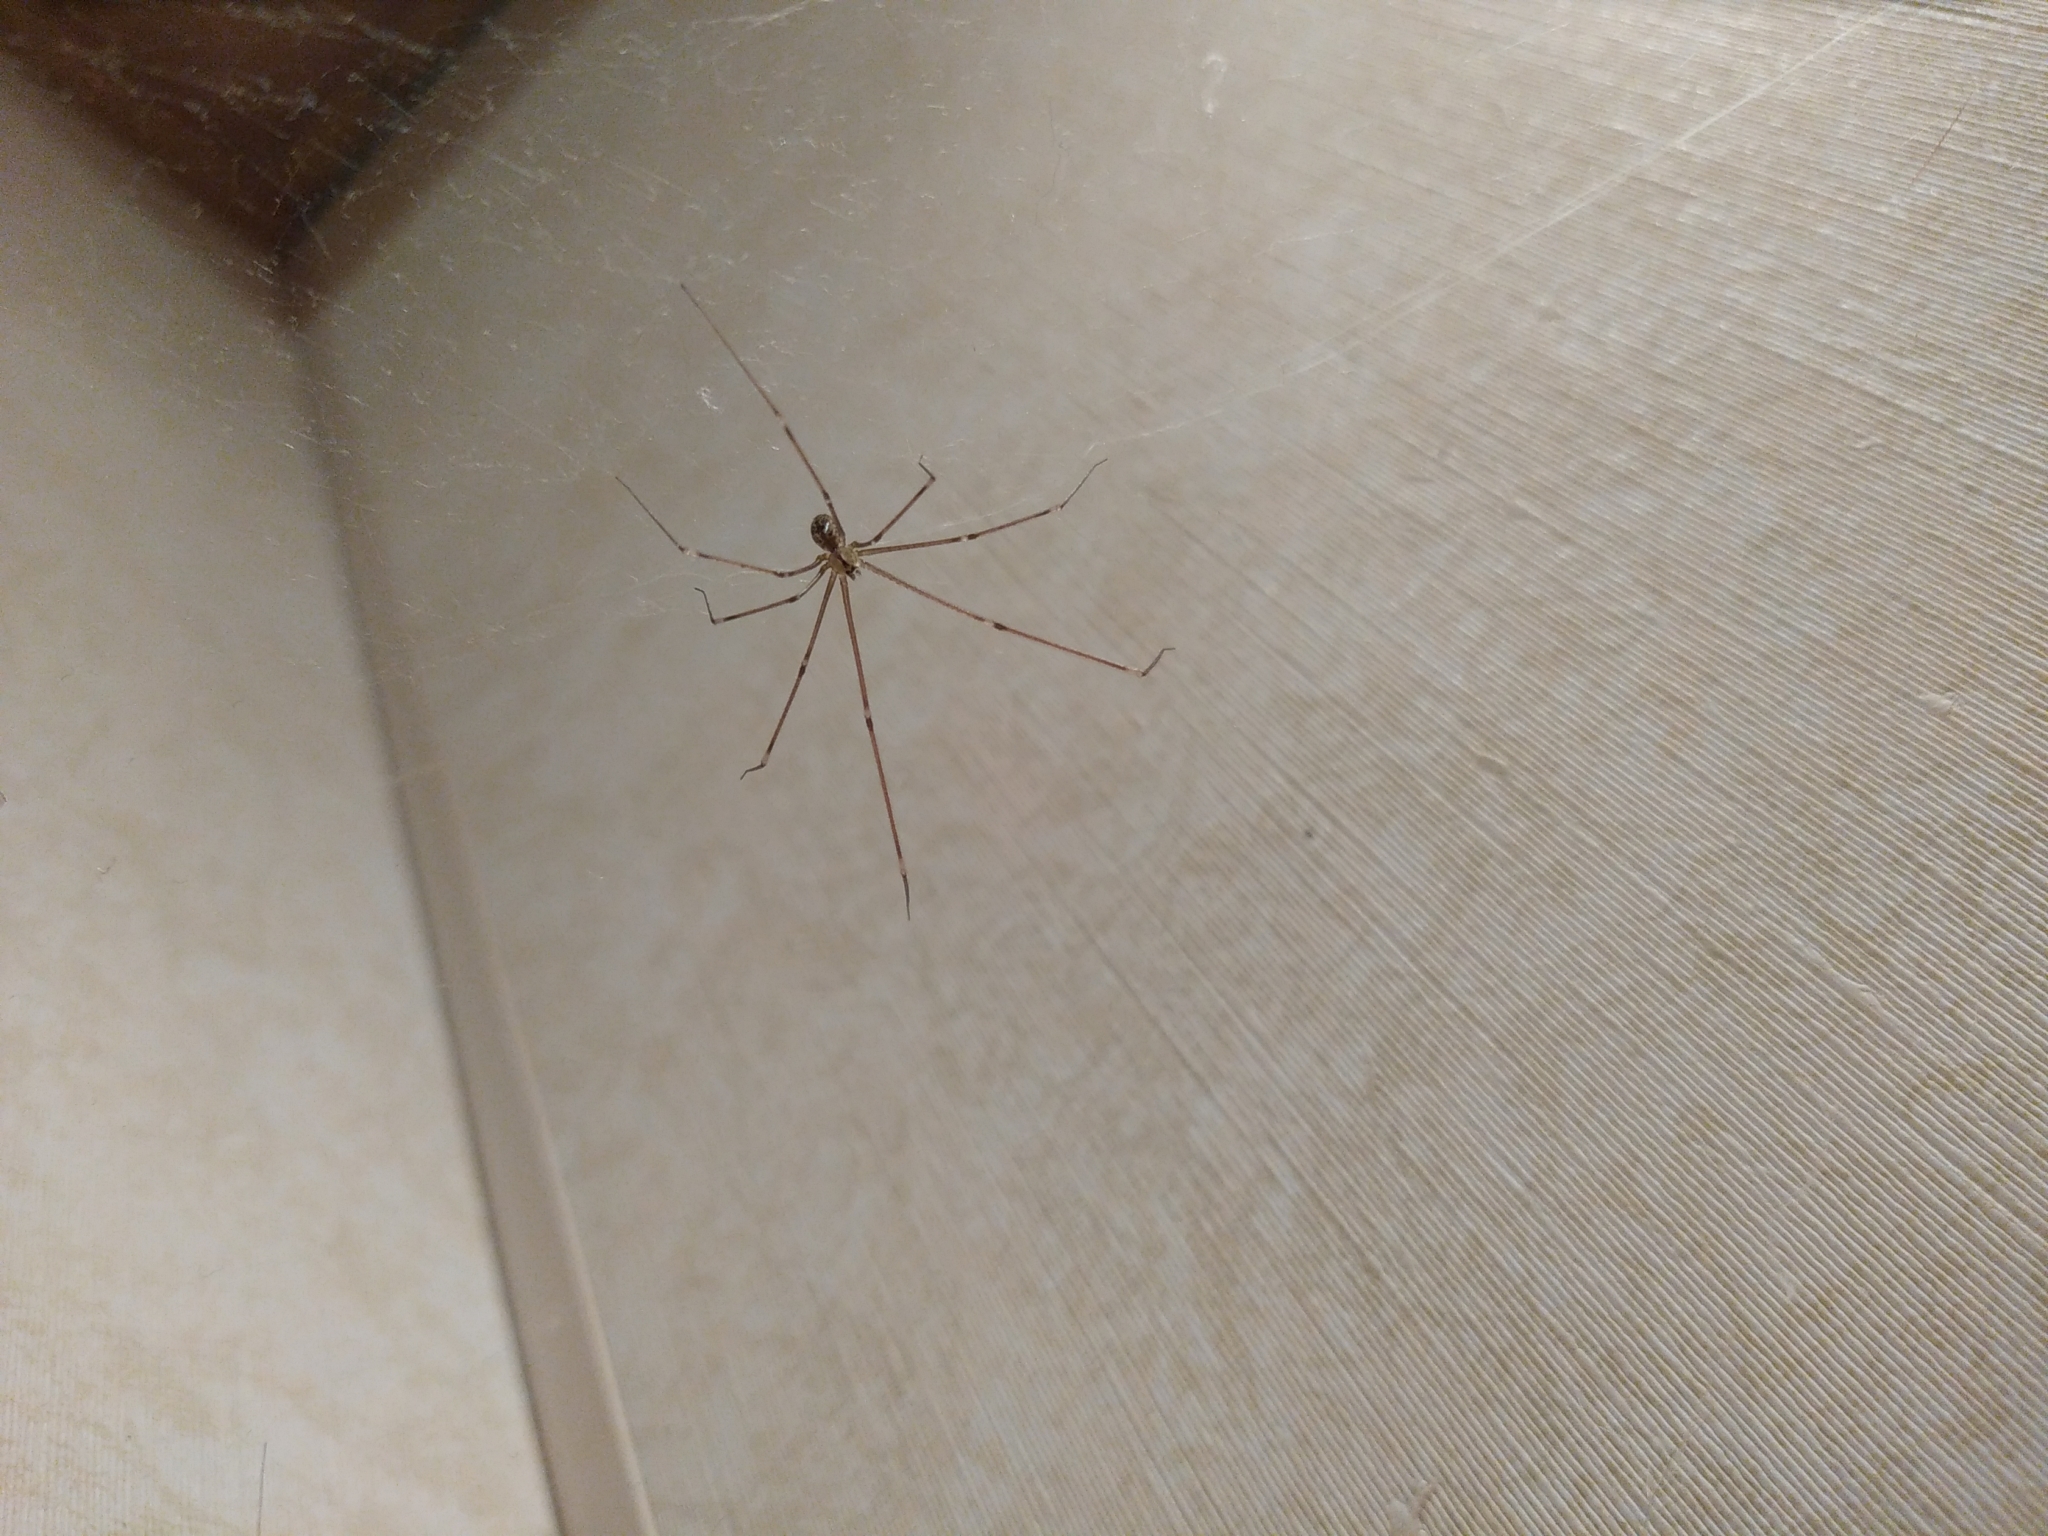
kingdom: Animalia
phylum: Arthropoda
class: Arachnida
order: Araneae
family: Pholcidae
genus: Holocnemus
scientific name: Holocnemus pluchei
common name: Marbled cellar spider
